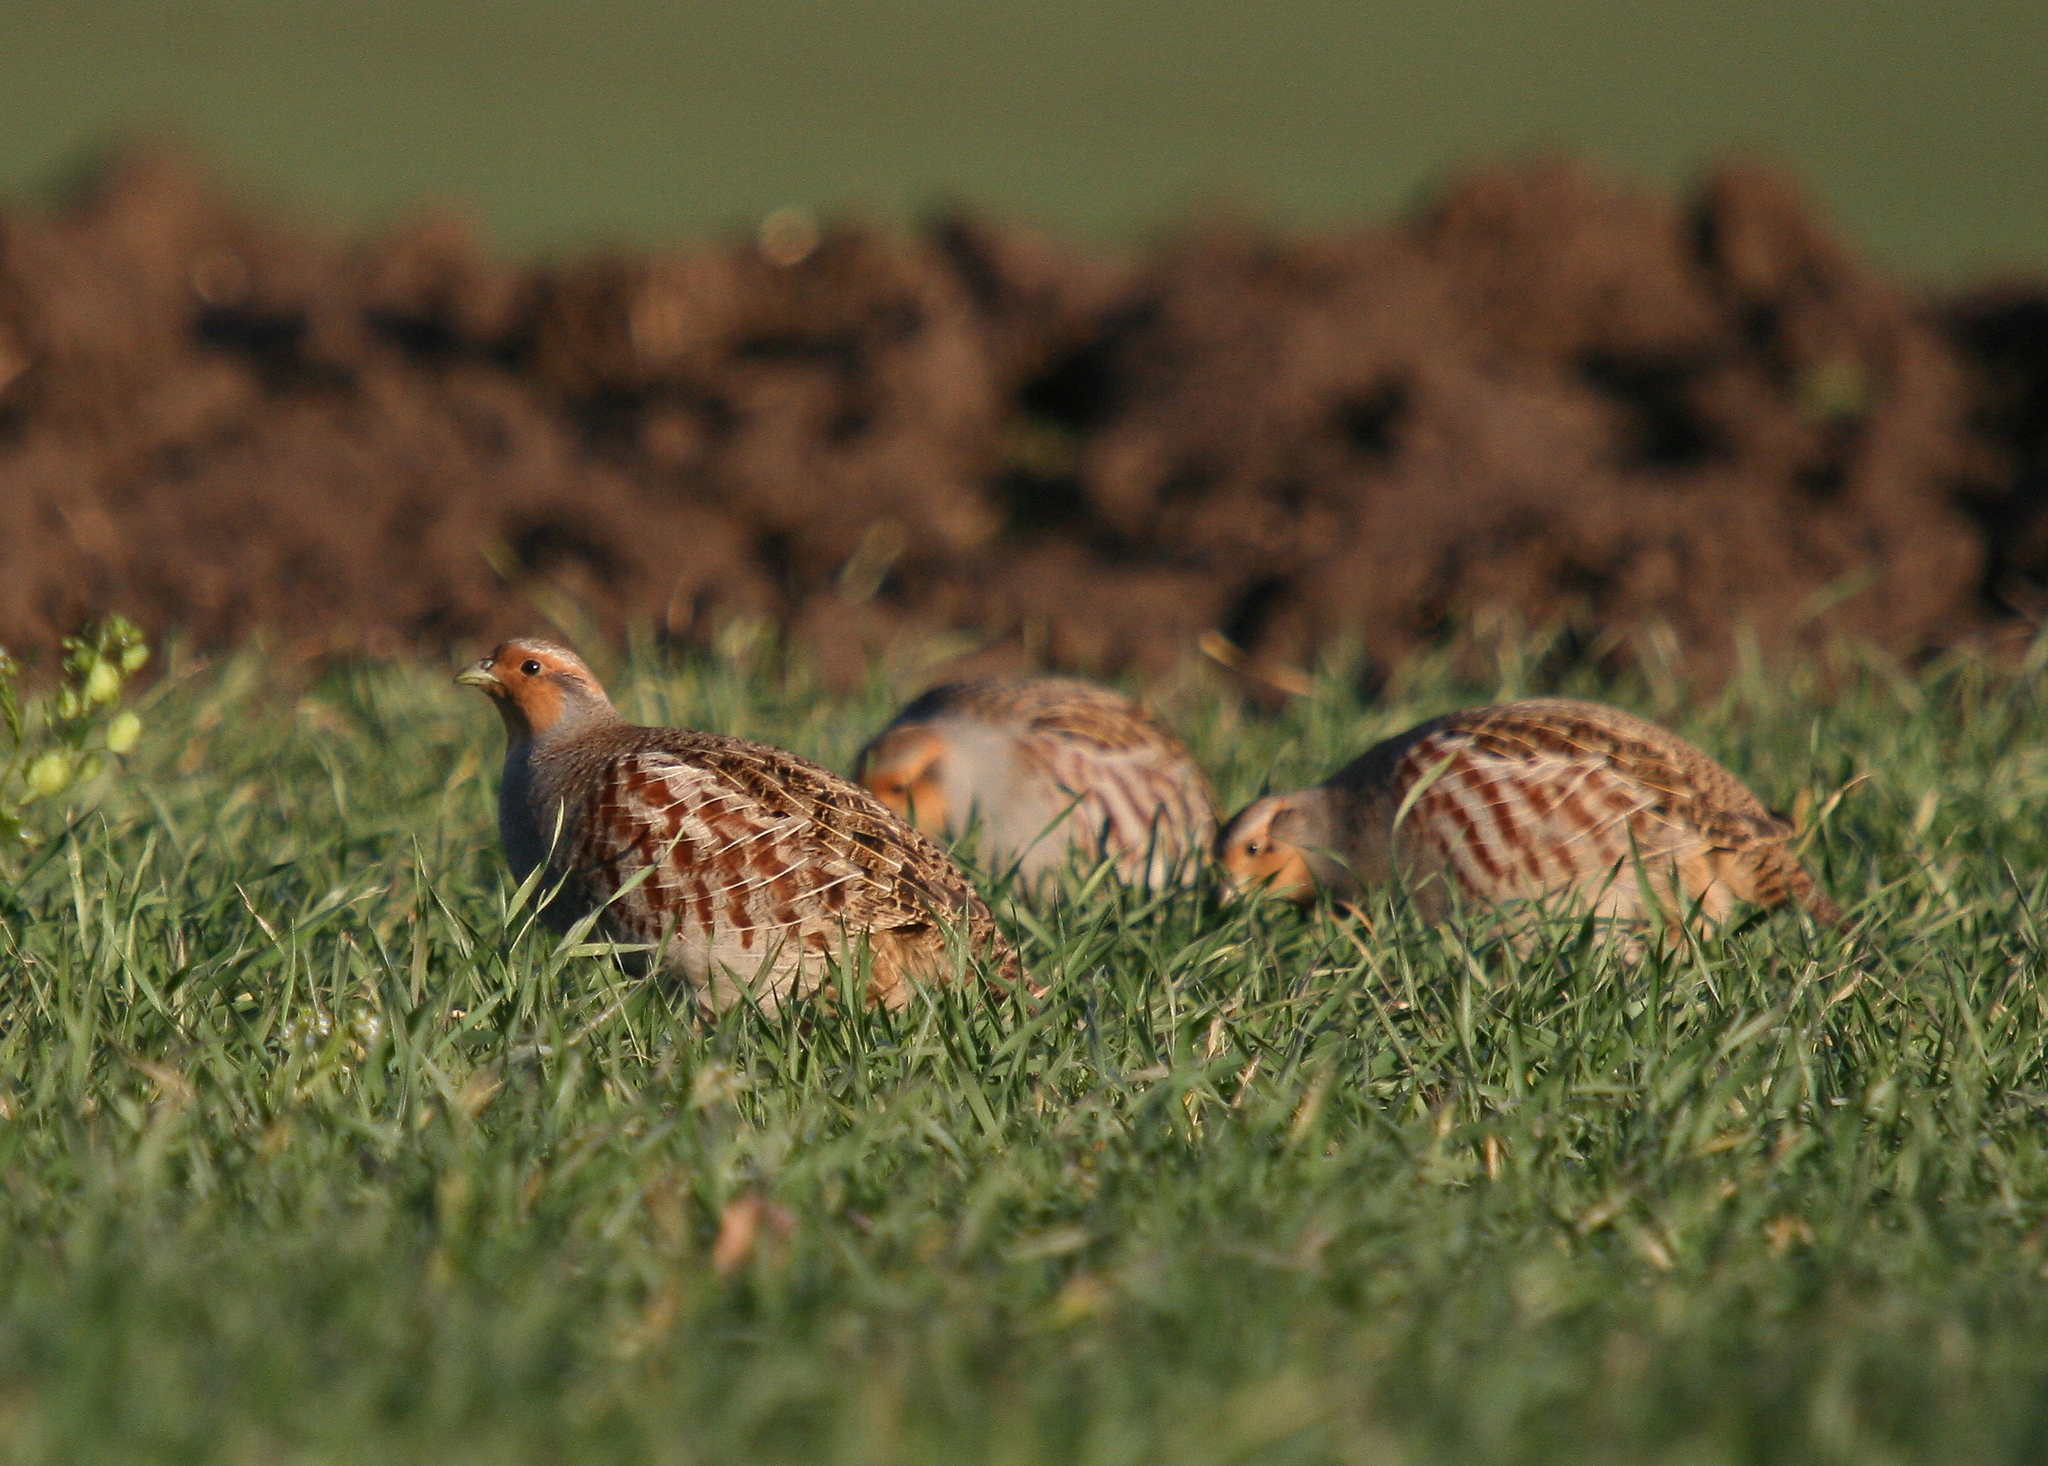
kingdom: Animalia
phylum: Chordata
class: Aves
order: Galliformes
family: Phasianidae
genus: Perdix
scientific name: Perdix perdix
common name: Grey partridge
